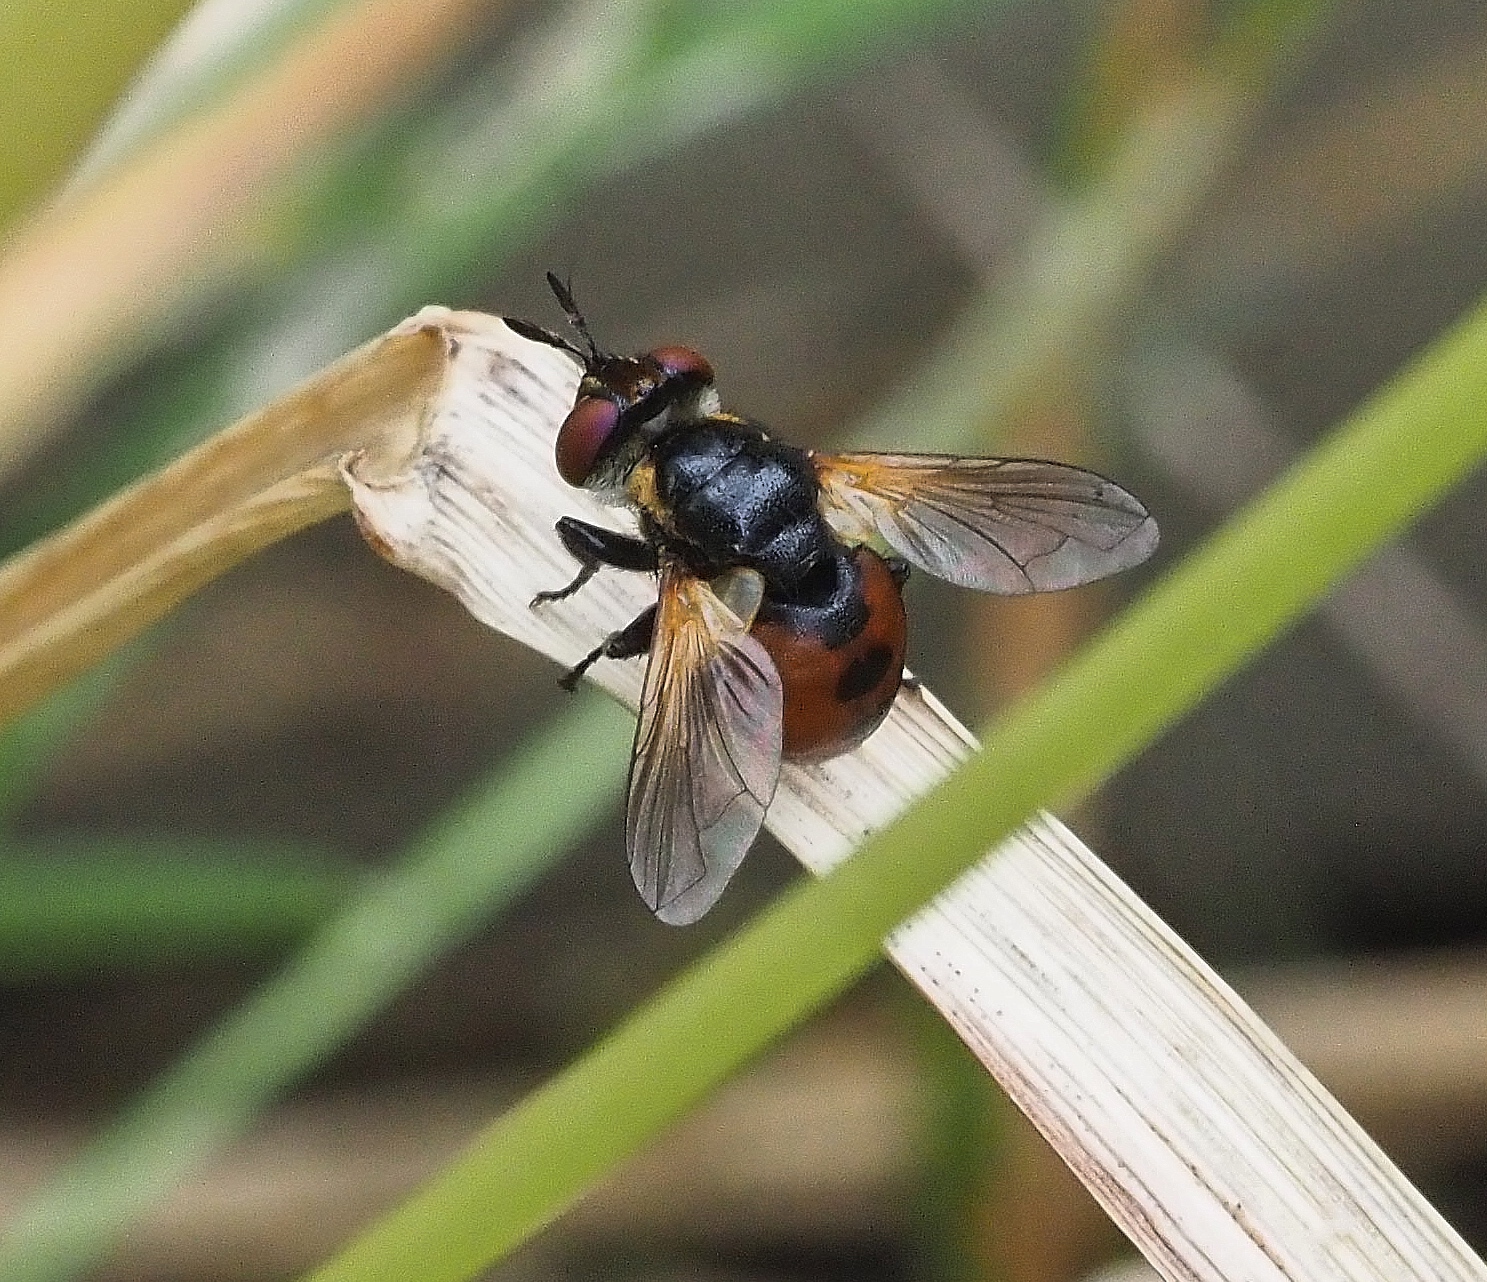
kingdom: Animalia
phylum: Arthropoda
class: Insecta
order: Diptera
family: Tachinidae
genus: Gymnosoma
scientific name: Gymnosoma rotundatum
